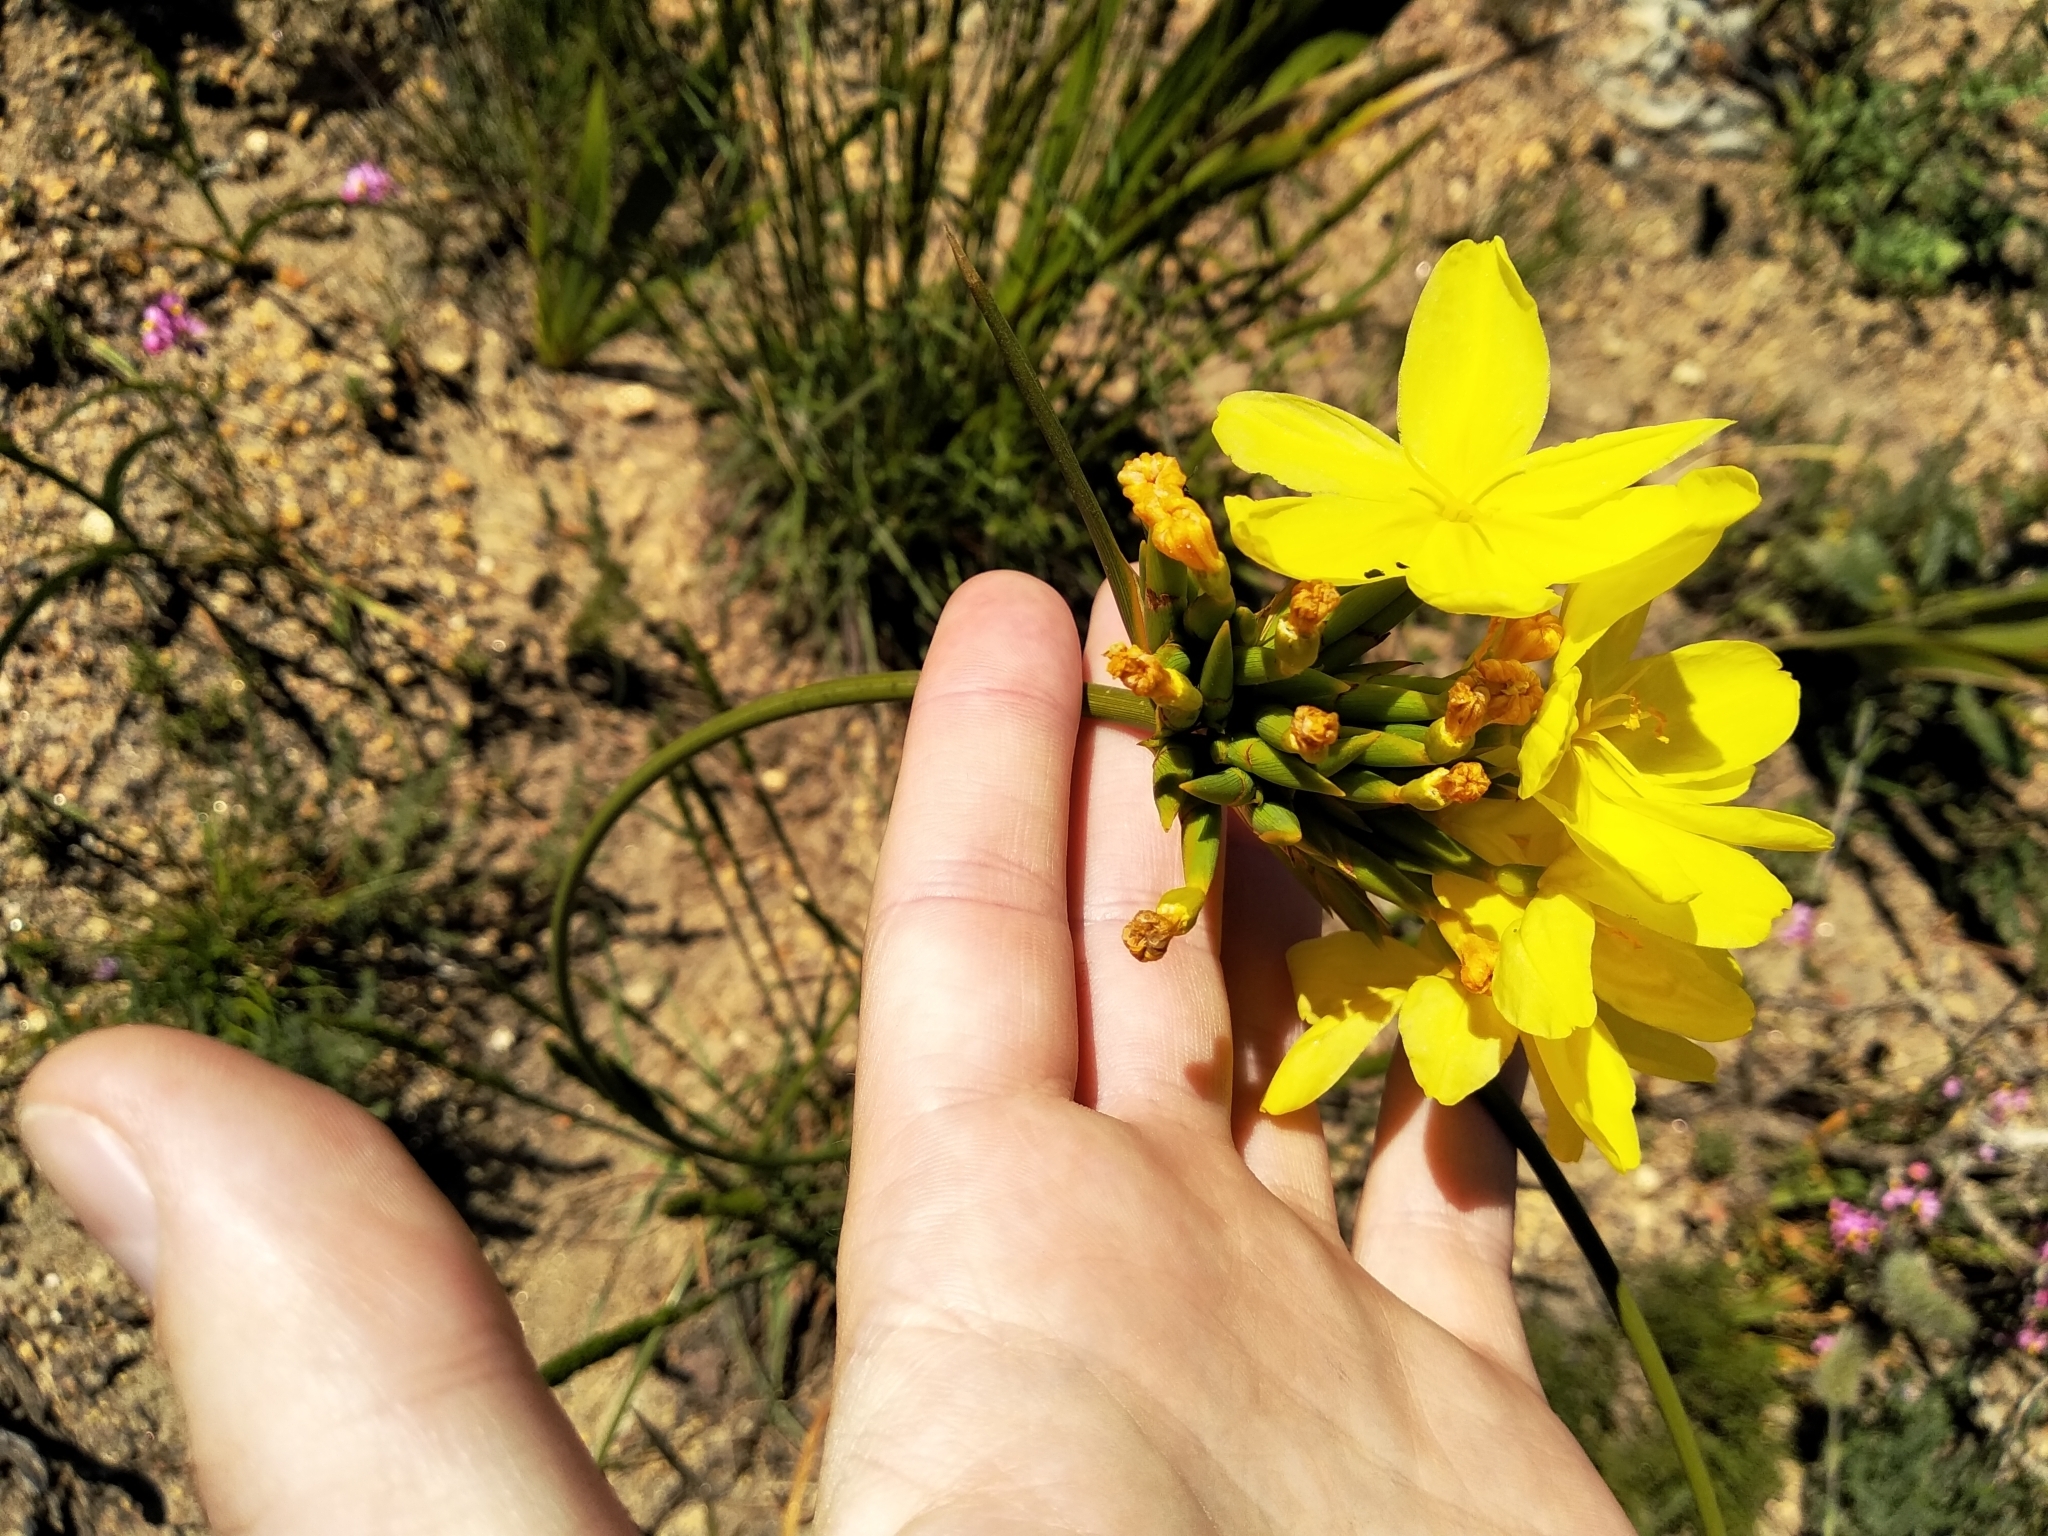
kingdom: Plantae
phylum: Tracheophyta
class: Liliopsida
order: Asparagales
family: Iridaceae
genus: Bobartia
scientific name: Bobartia indica
